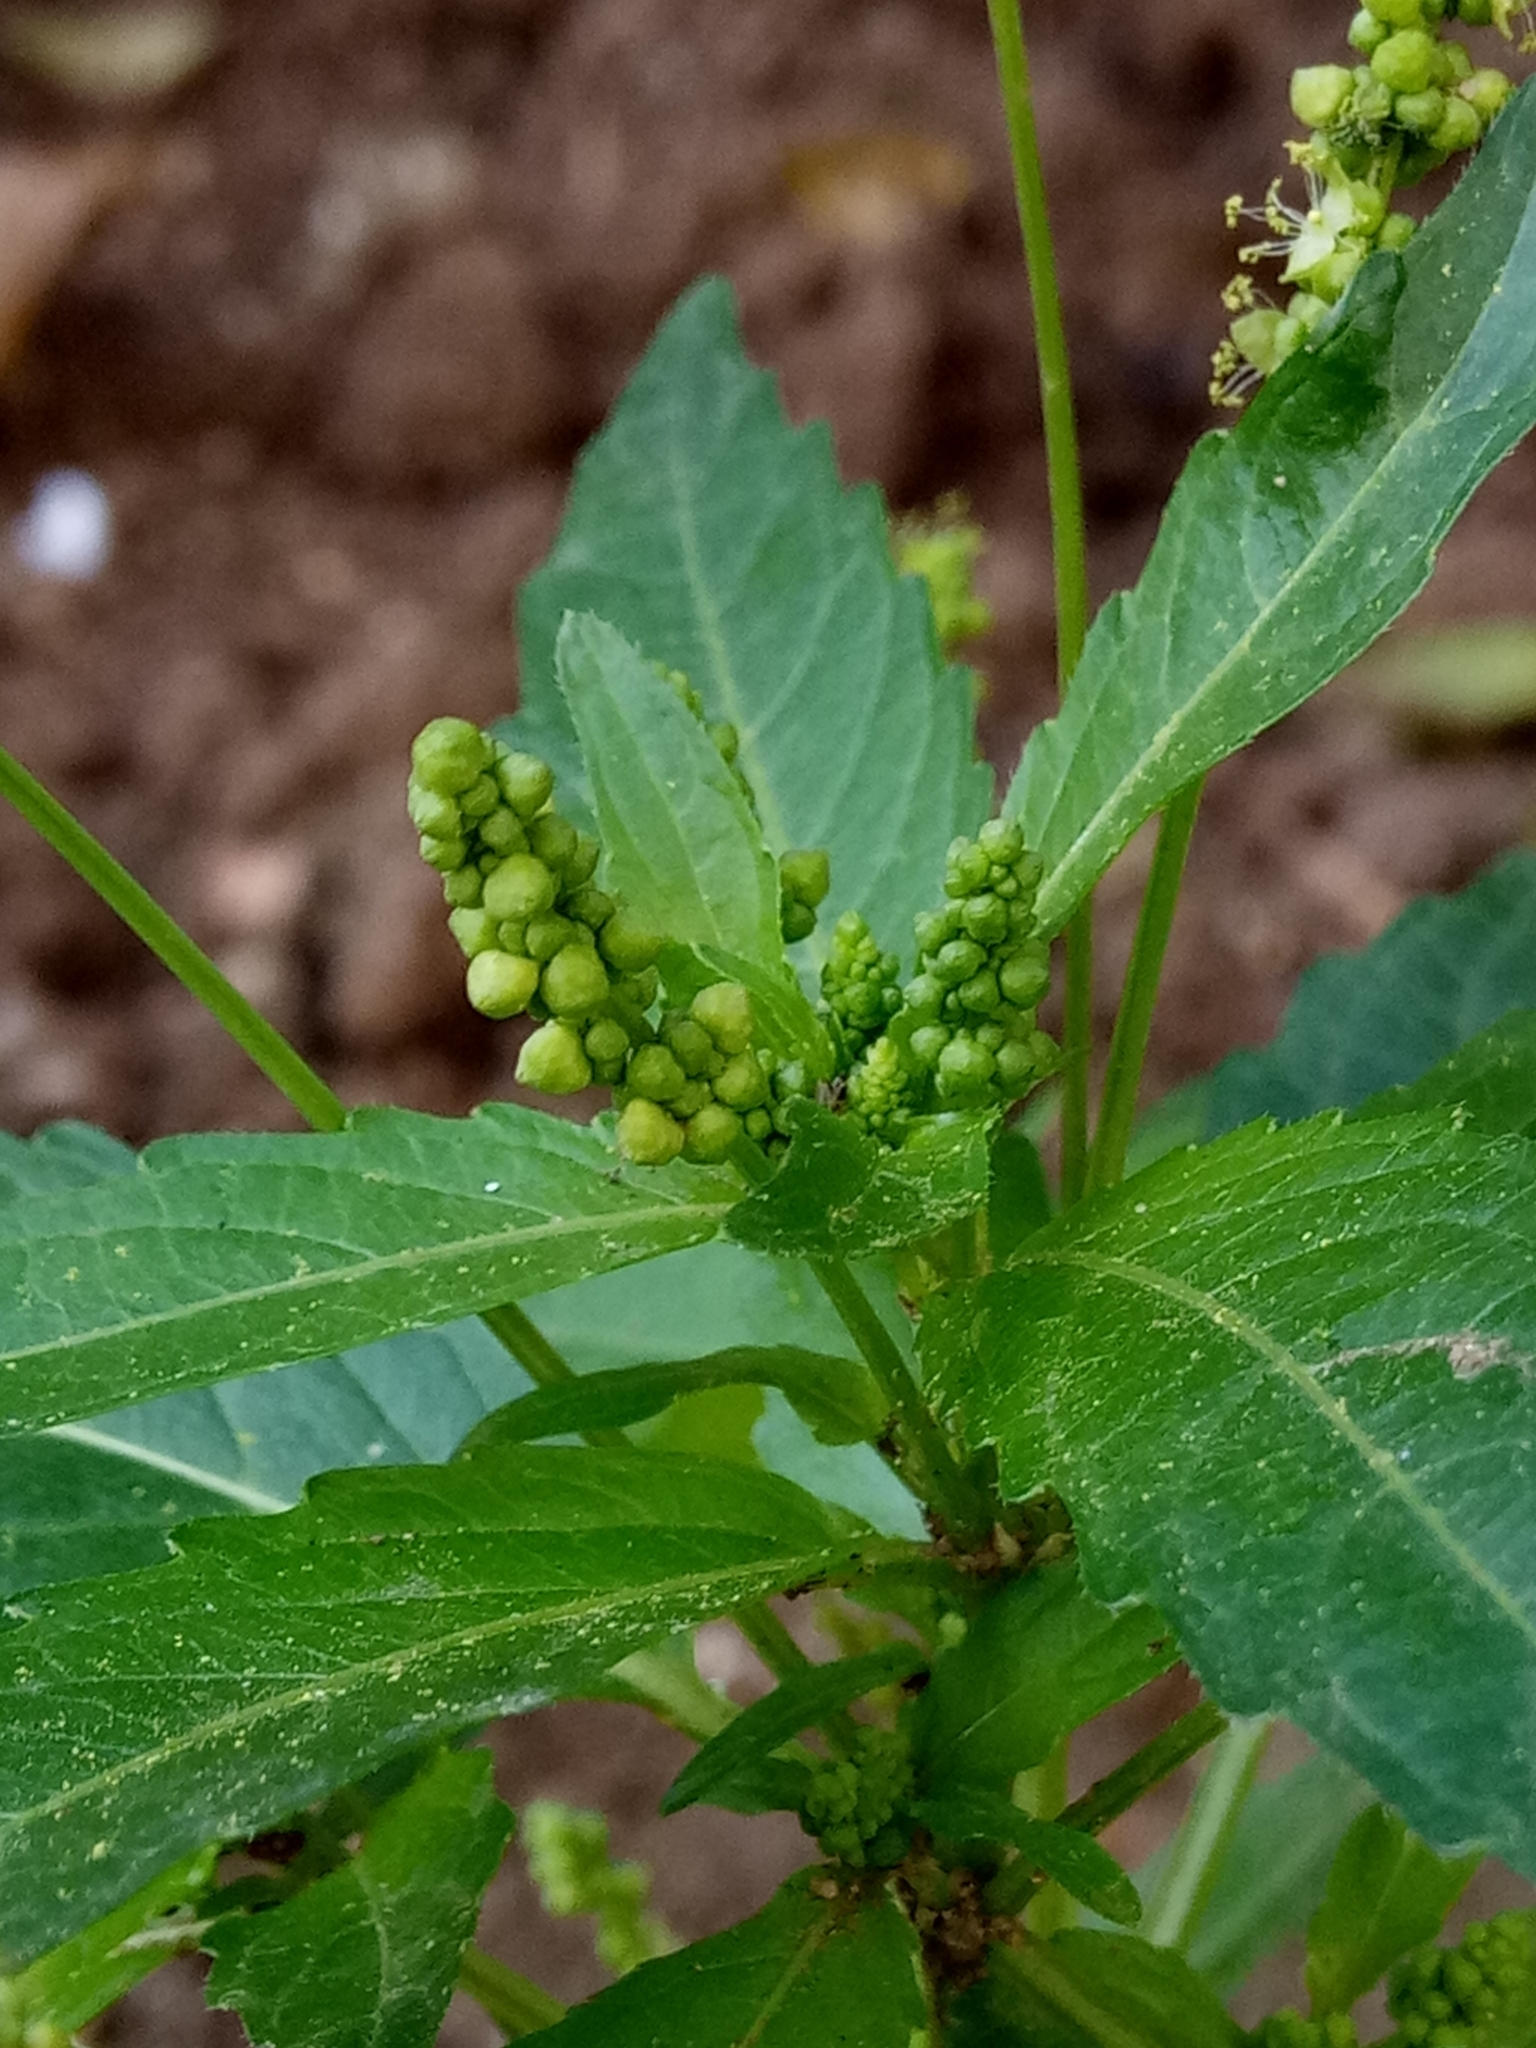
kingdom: Plantae
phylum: Tracheophyta
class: Magnoliopsida
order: Malpighiales
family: Euphorbiaceae
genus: Mercurialis
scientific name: Mercurialis annua
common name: Annual mercury
